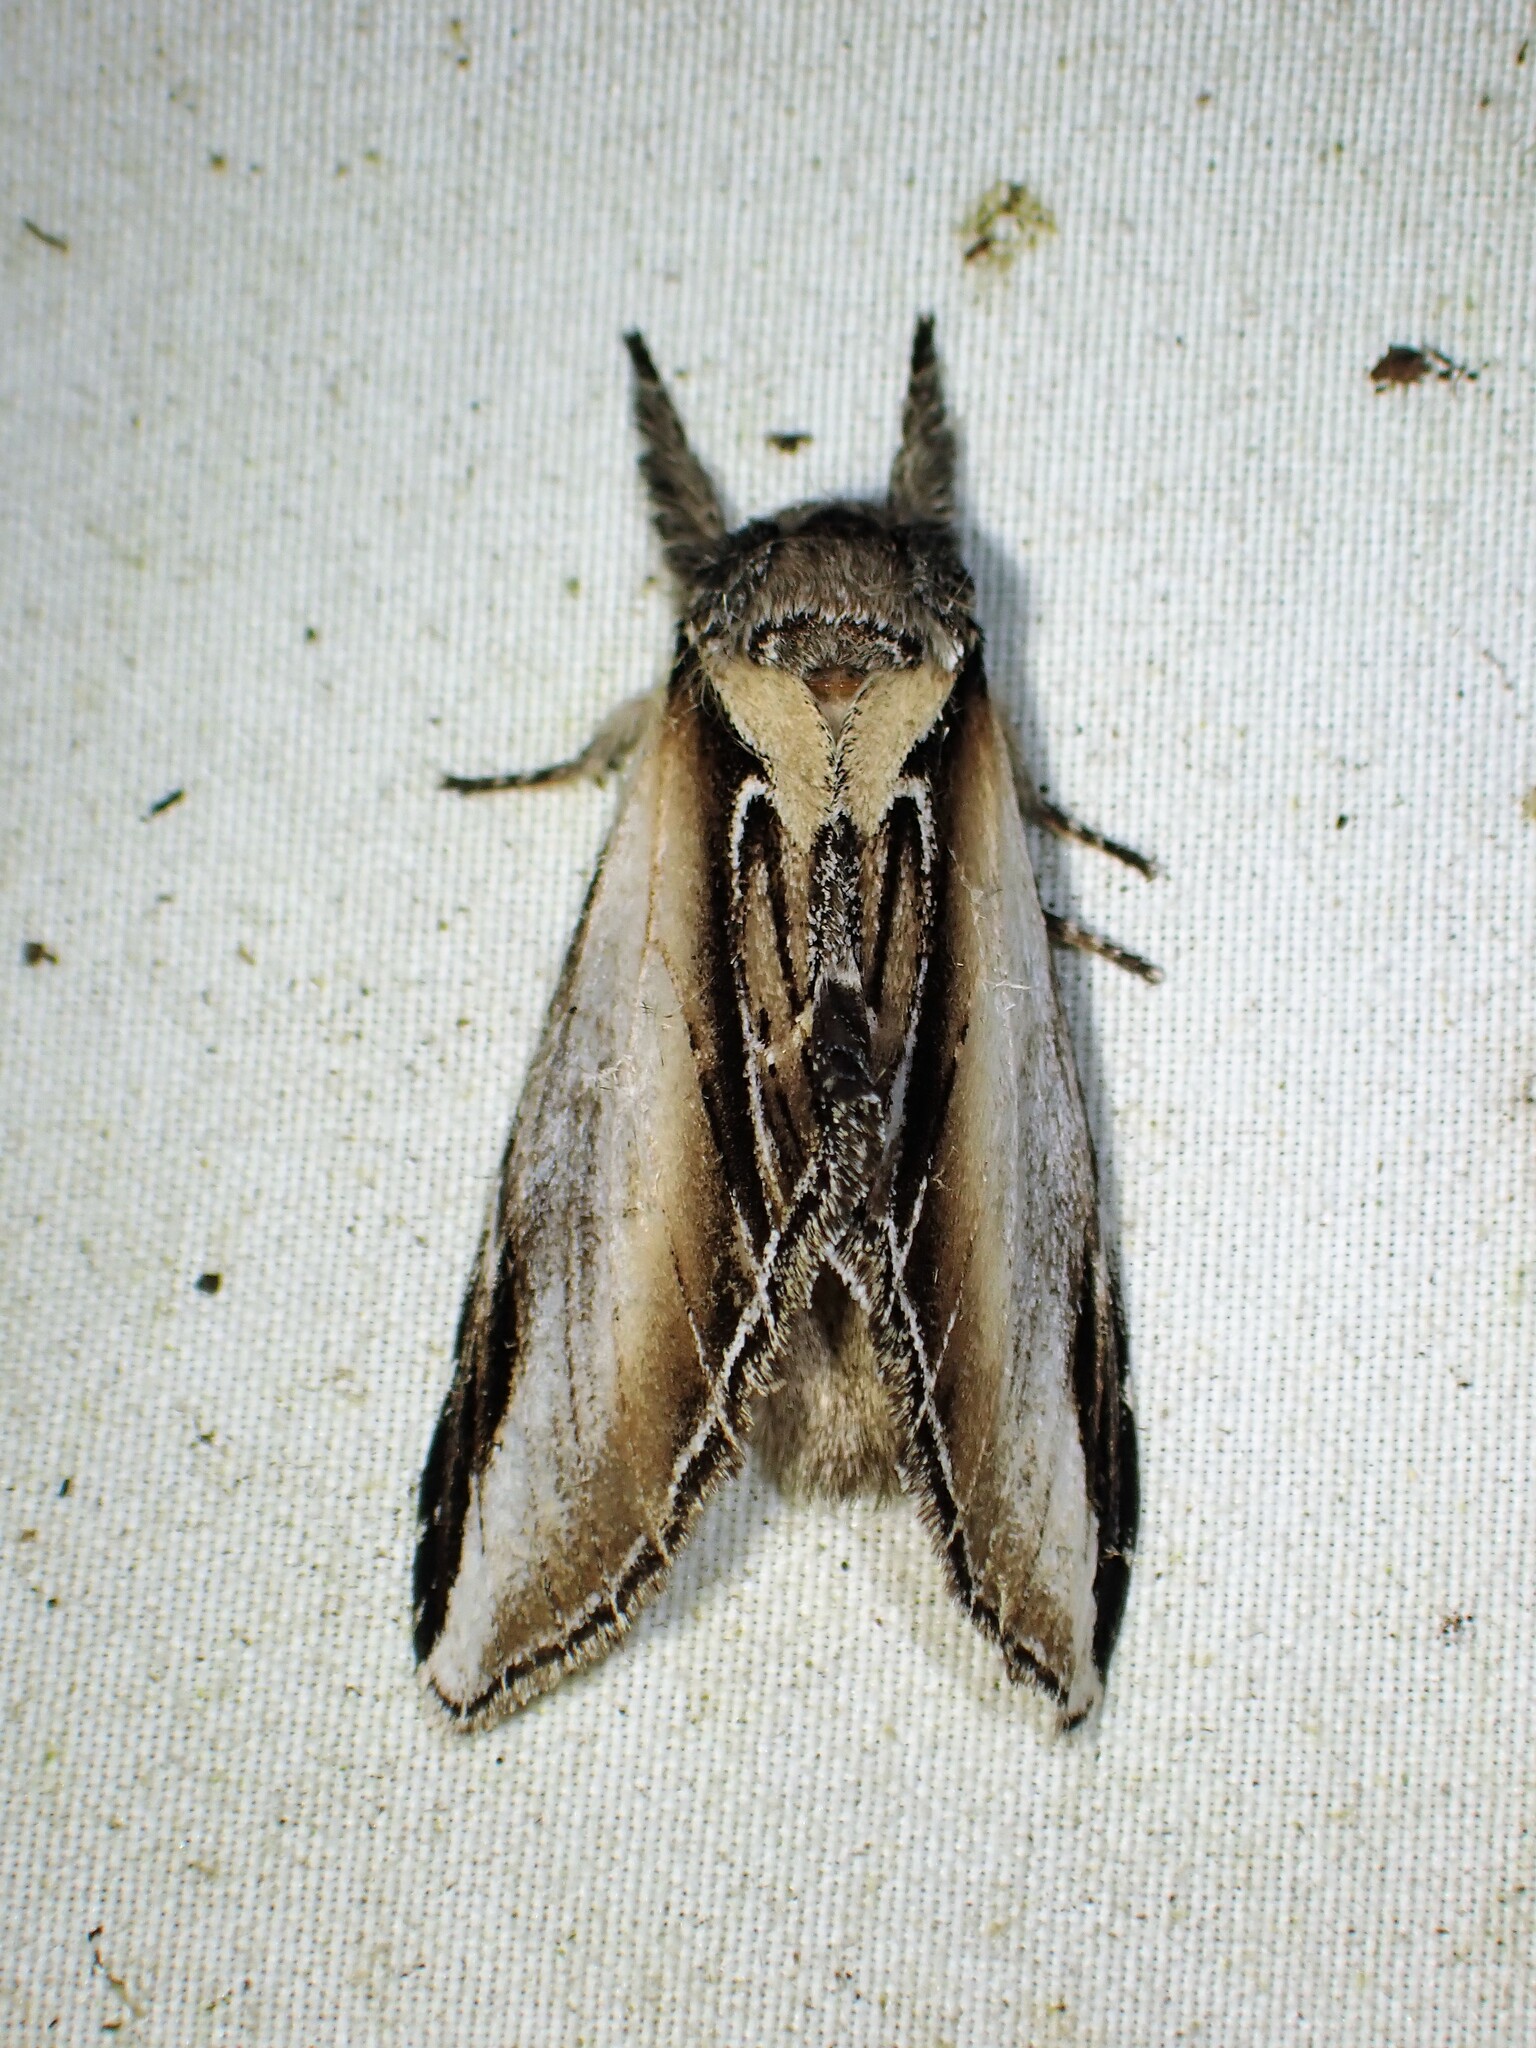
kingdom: Animalia
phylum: Arthropoda
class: Insecta
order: Lepidoptera
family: Notodontidae
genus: Pheosia
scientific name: Pheosia rimosa
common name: Black-rimmed prominent
